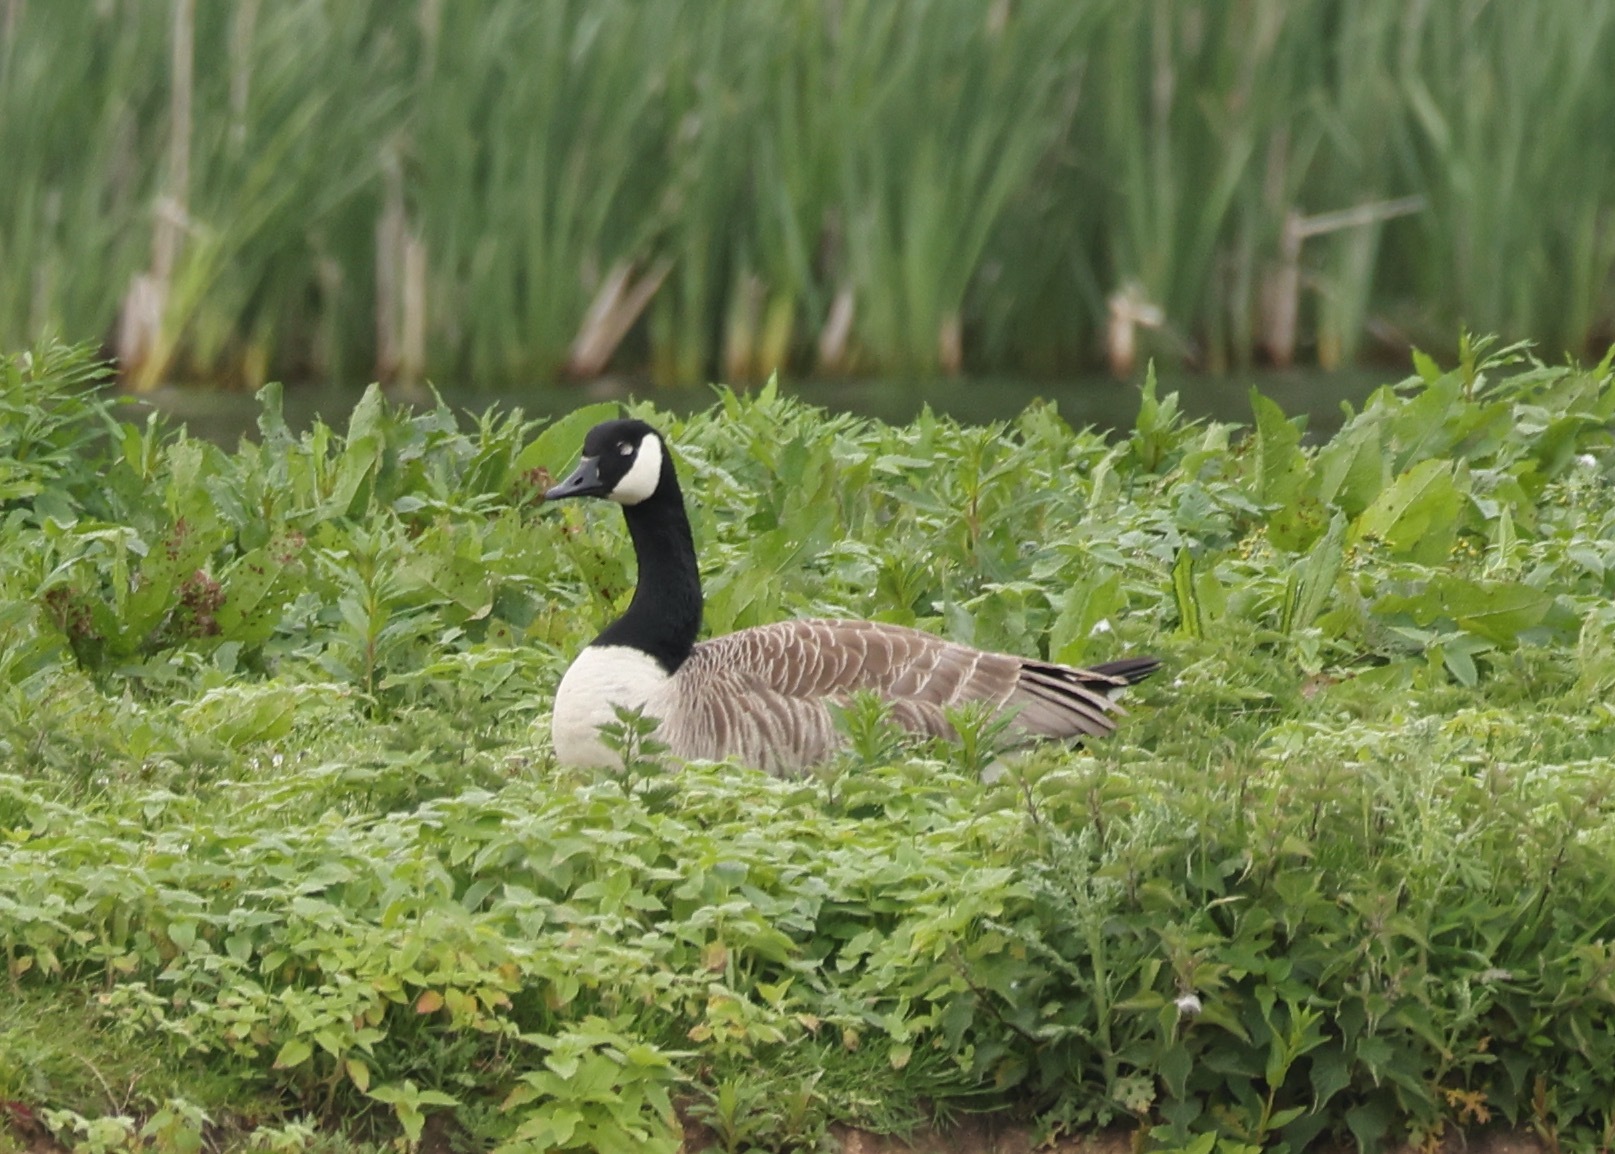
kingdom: Animalia
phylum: Chordata
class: Aves
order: Anseriformes
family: Anatidae
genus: Branta
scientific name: Branta canadensis
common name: Canada goose
